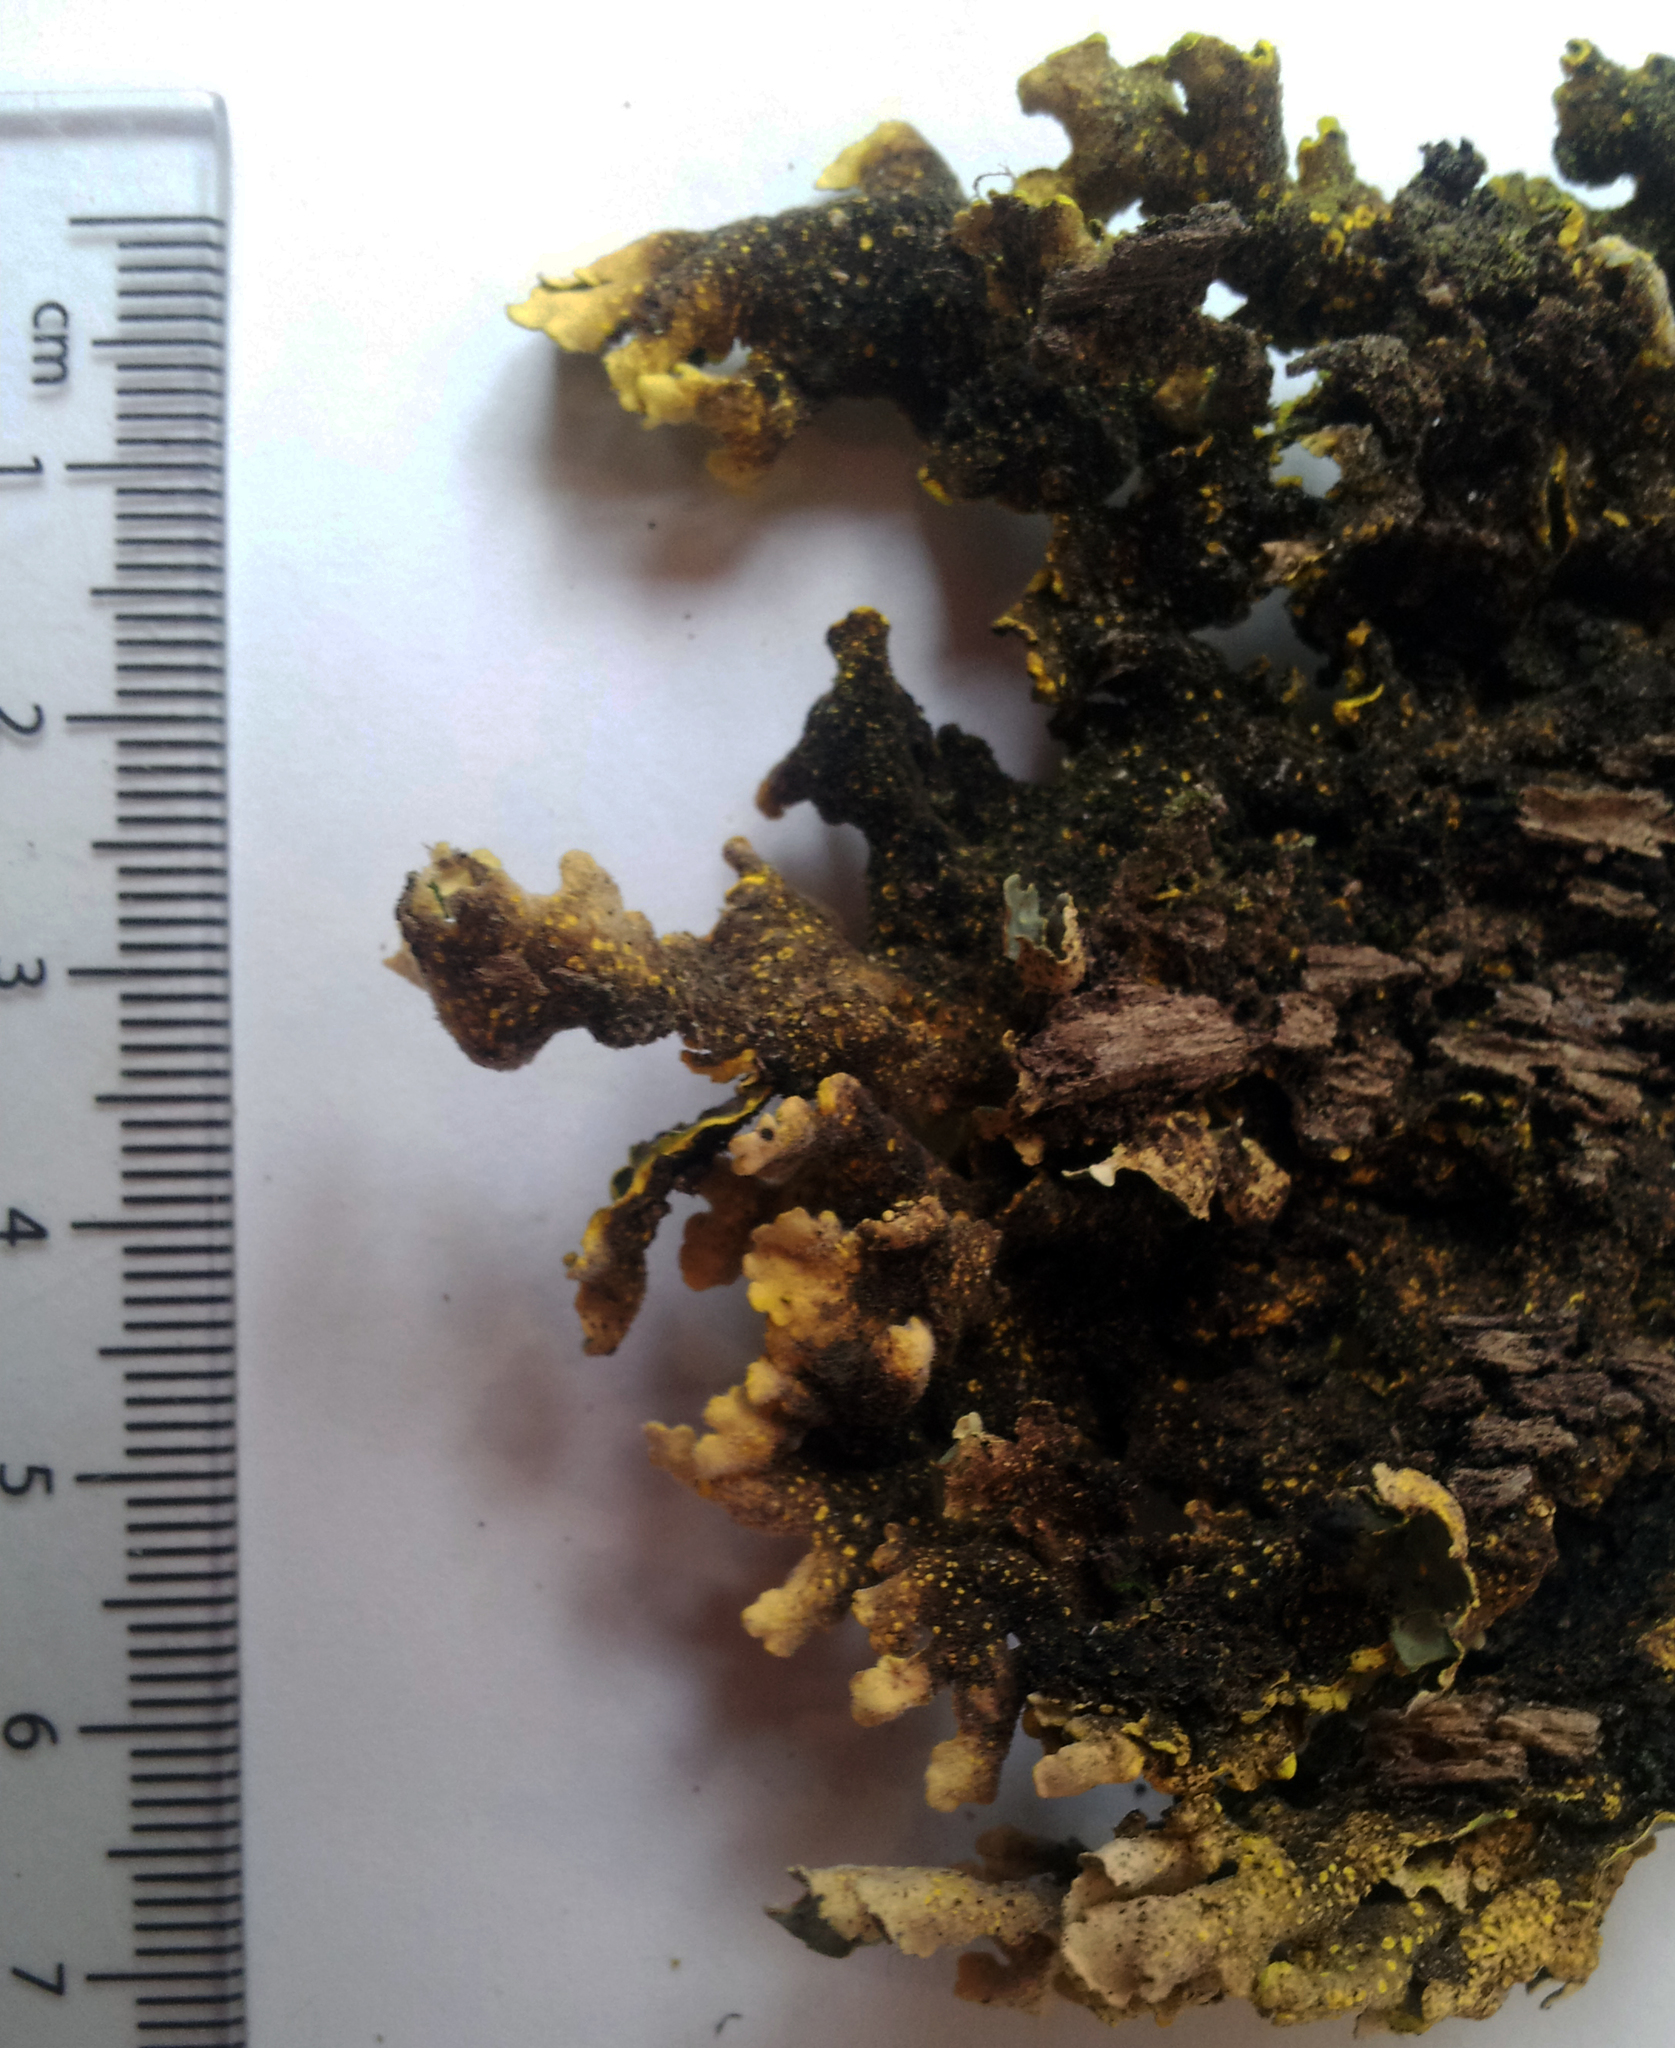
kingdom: Fungi
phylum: Ascomycota
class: Lecanoromycetes
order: Peltigerales
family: Lobariaceae
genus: Pseudocyphellaria
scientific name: Pseudocyphellaria aurata
